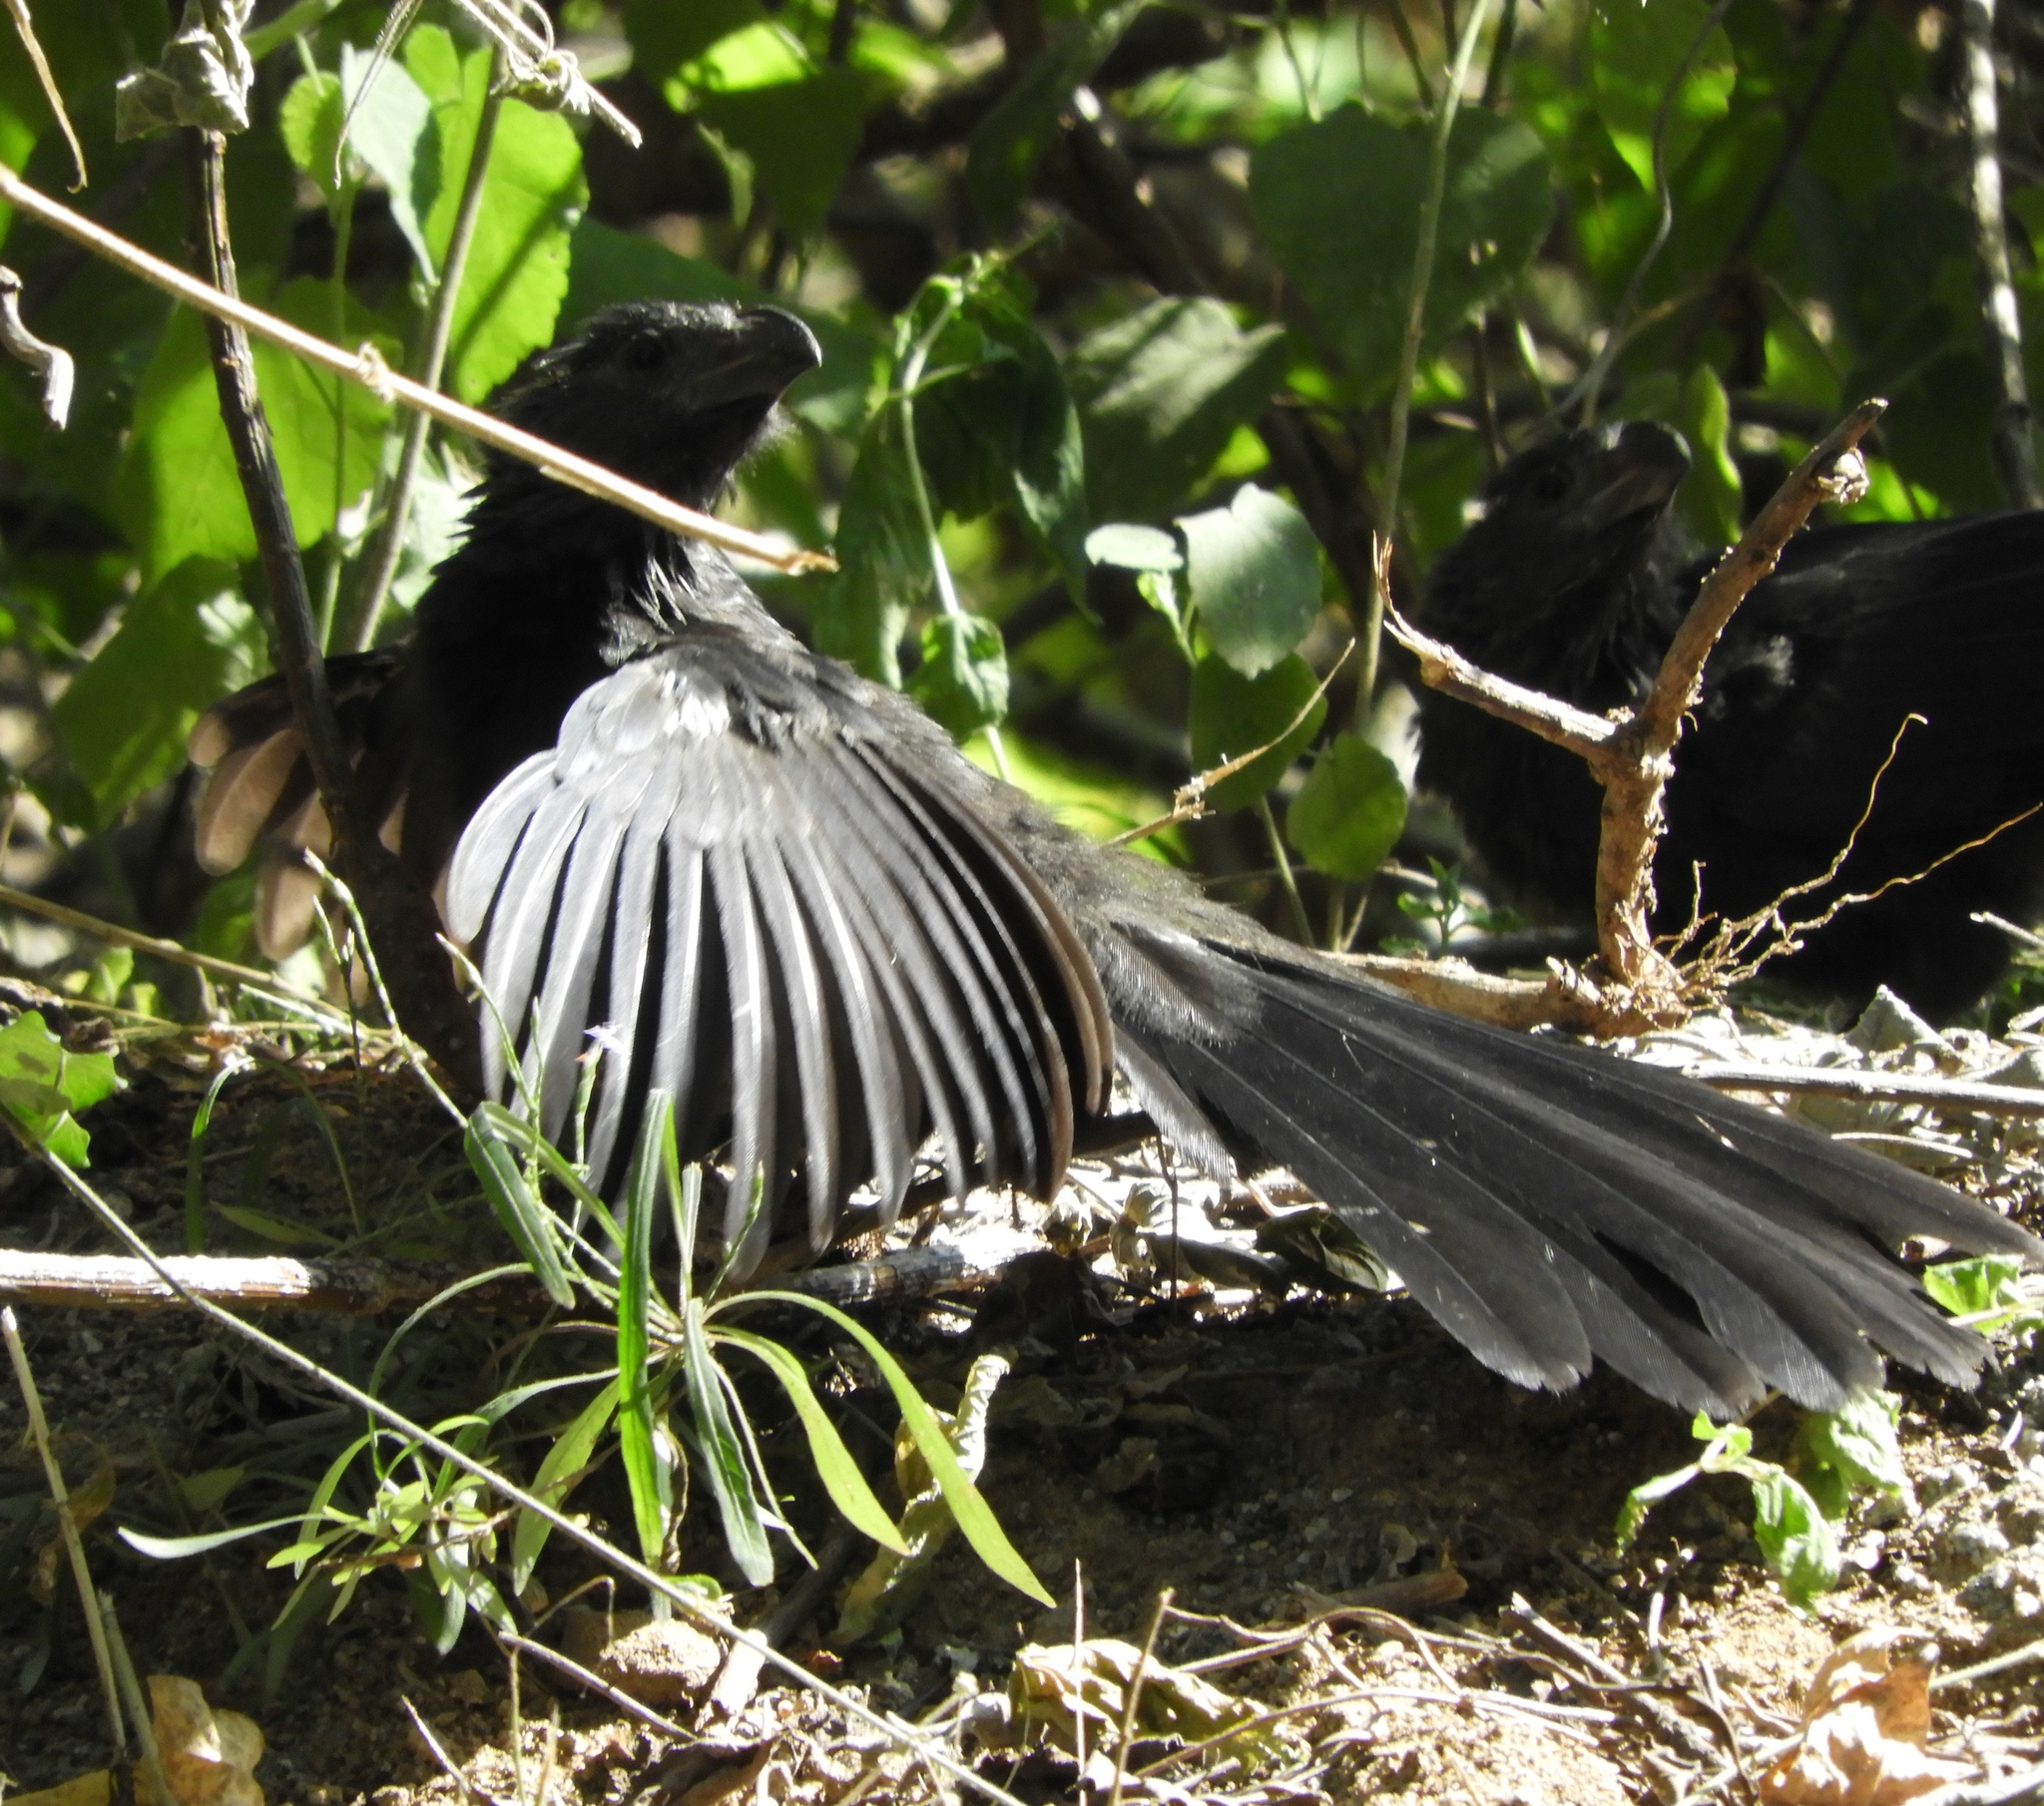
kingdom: Animalia
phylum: Chordata
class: Aves
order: Cuculiformes
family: Cuculidae
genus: Crotophaga
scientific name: Crotophaga sulcirostris
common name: Groove-billed ani
